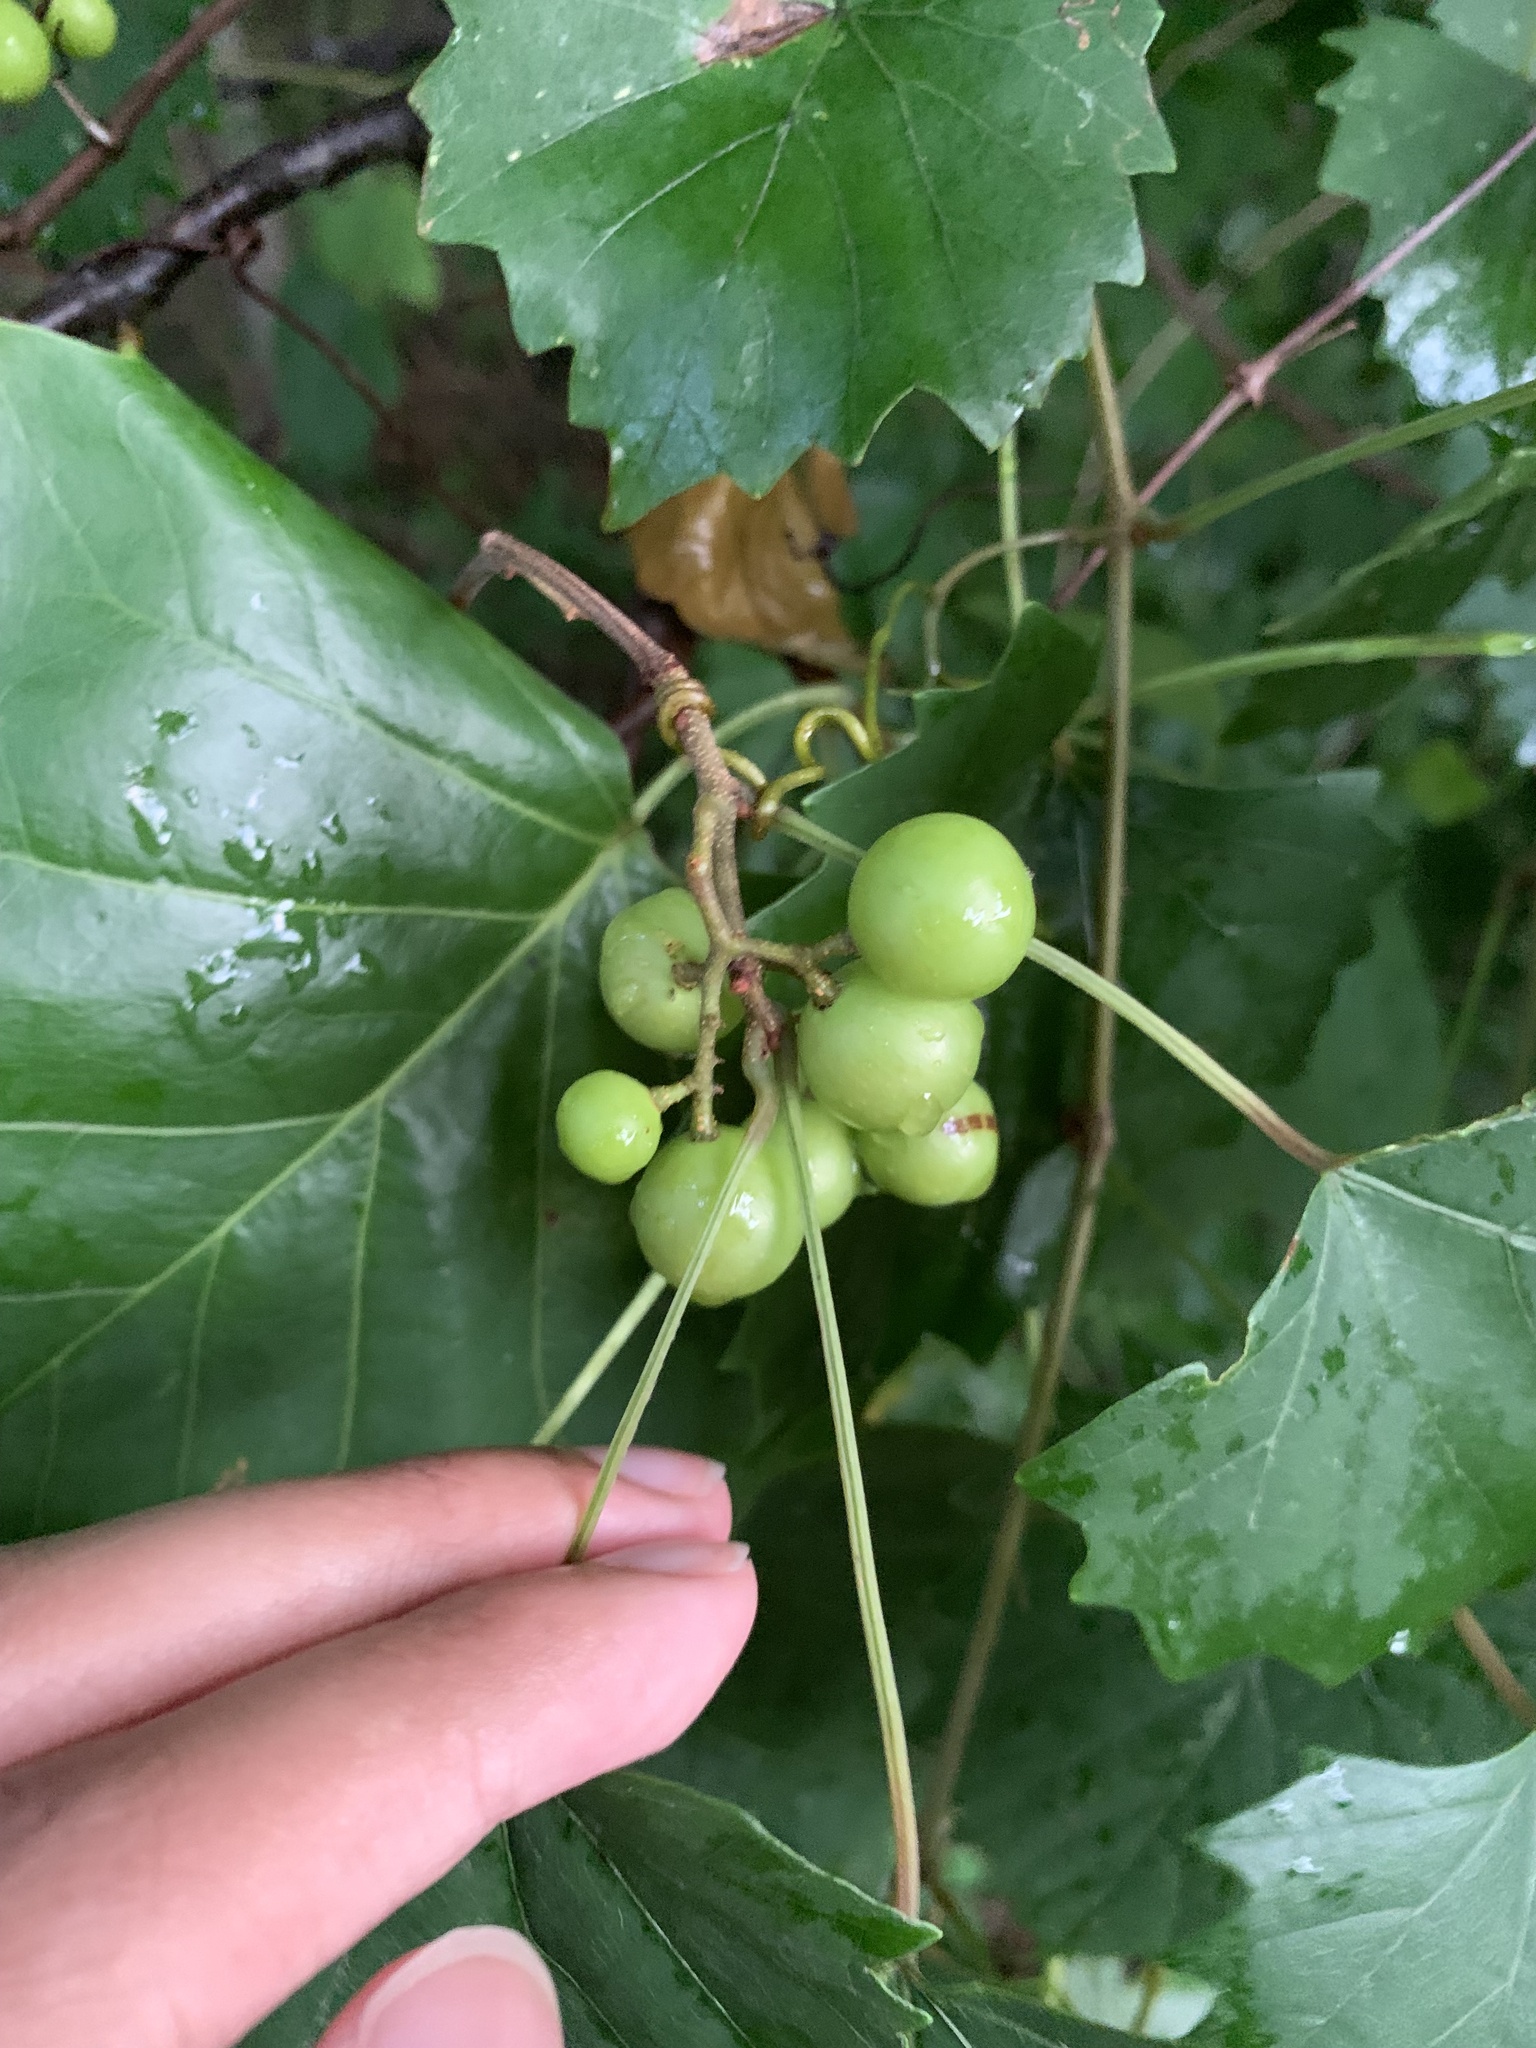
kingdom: Plantae
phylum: Tracheophyta
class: Magnoliopsida
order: Vitales
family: Vitaceae
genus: Vitis
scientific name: Vitis rotundifolia
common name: Muscadine grape
